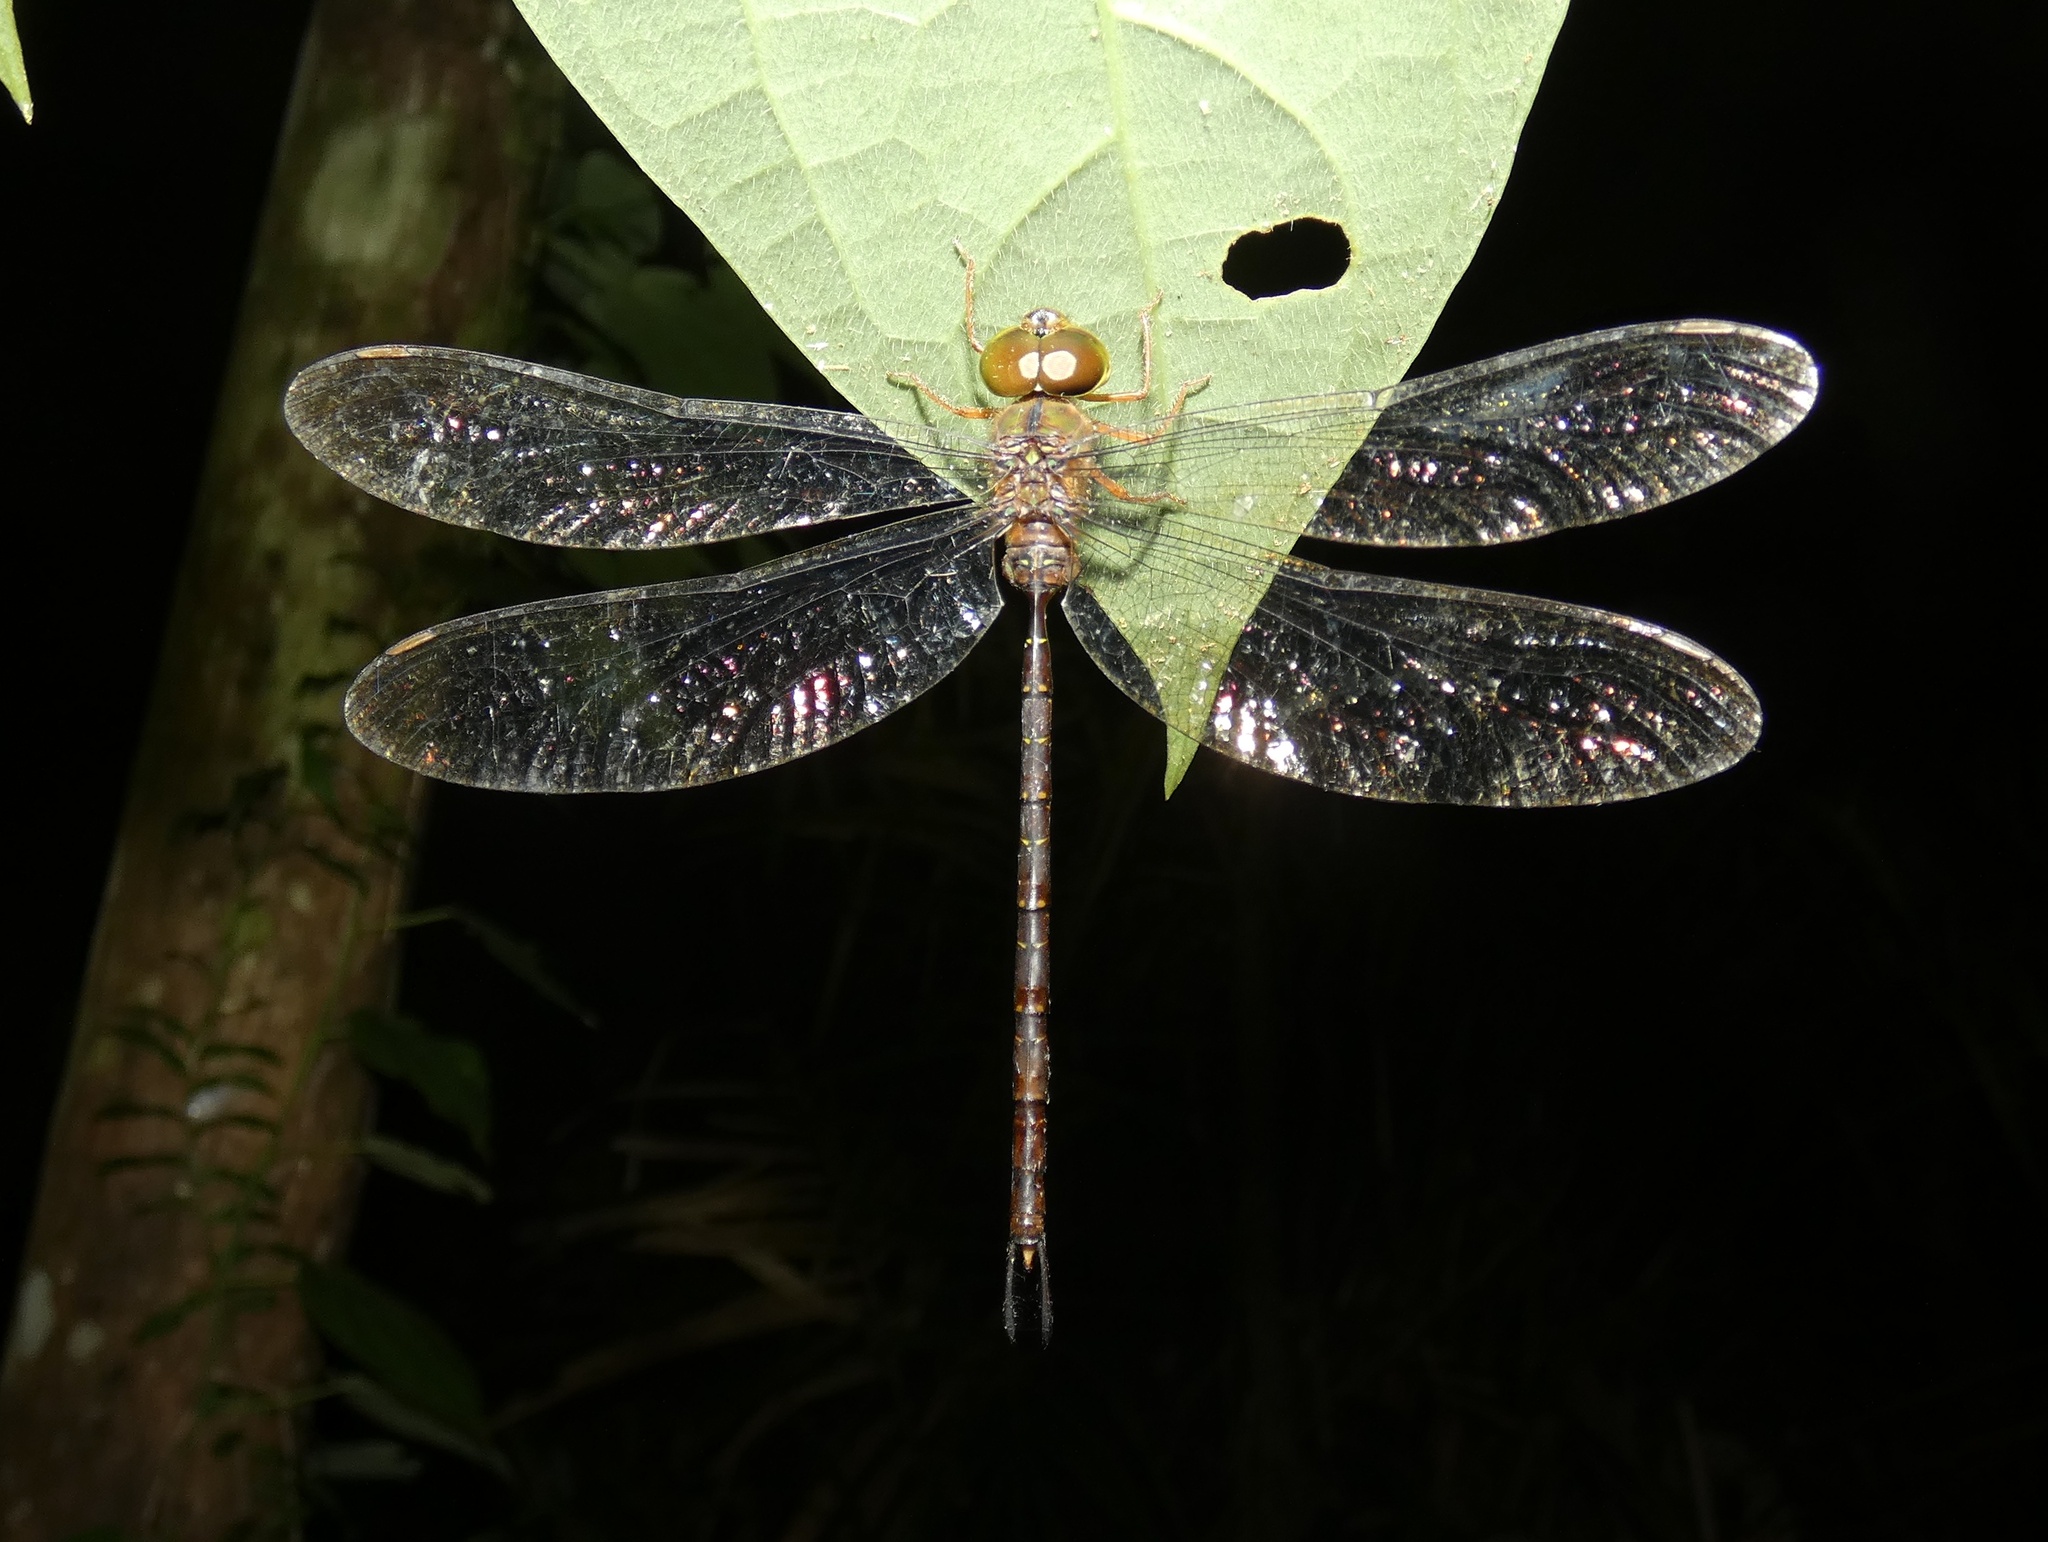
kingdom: Animalia
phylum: Arthropoda
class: Insecta
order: Odonata
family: Aeshnidae
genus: Gynacantha
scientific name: Gynacantha kirbyi
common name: Slender duskhawker
